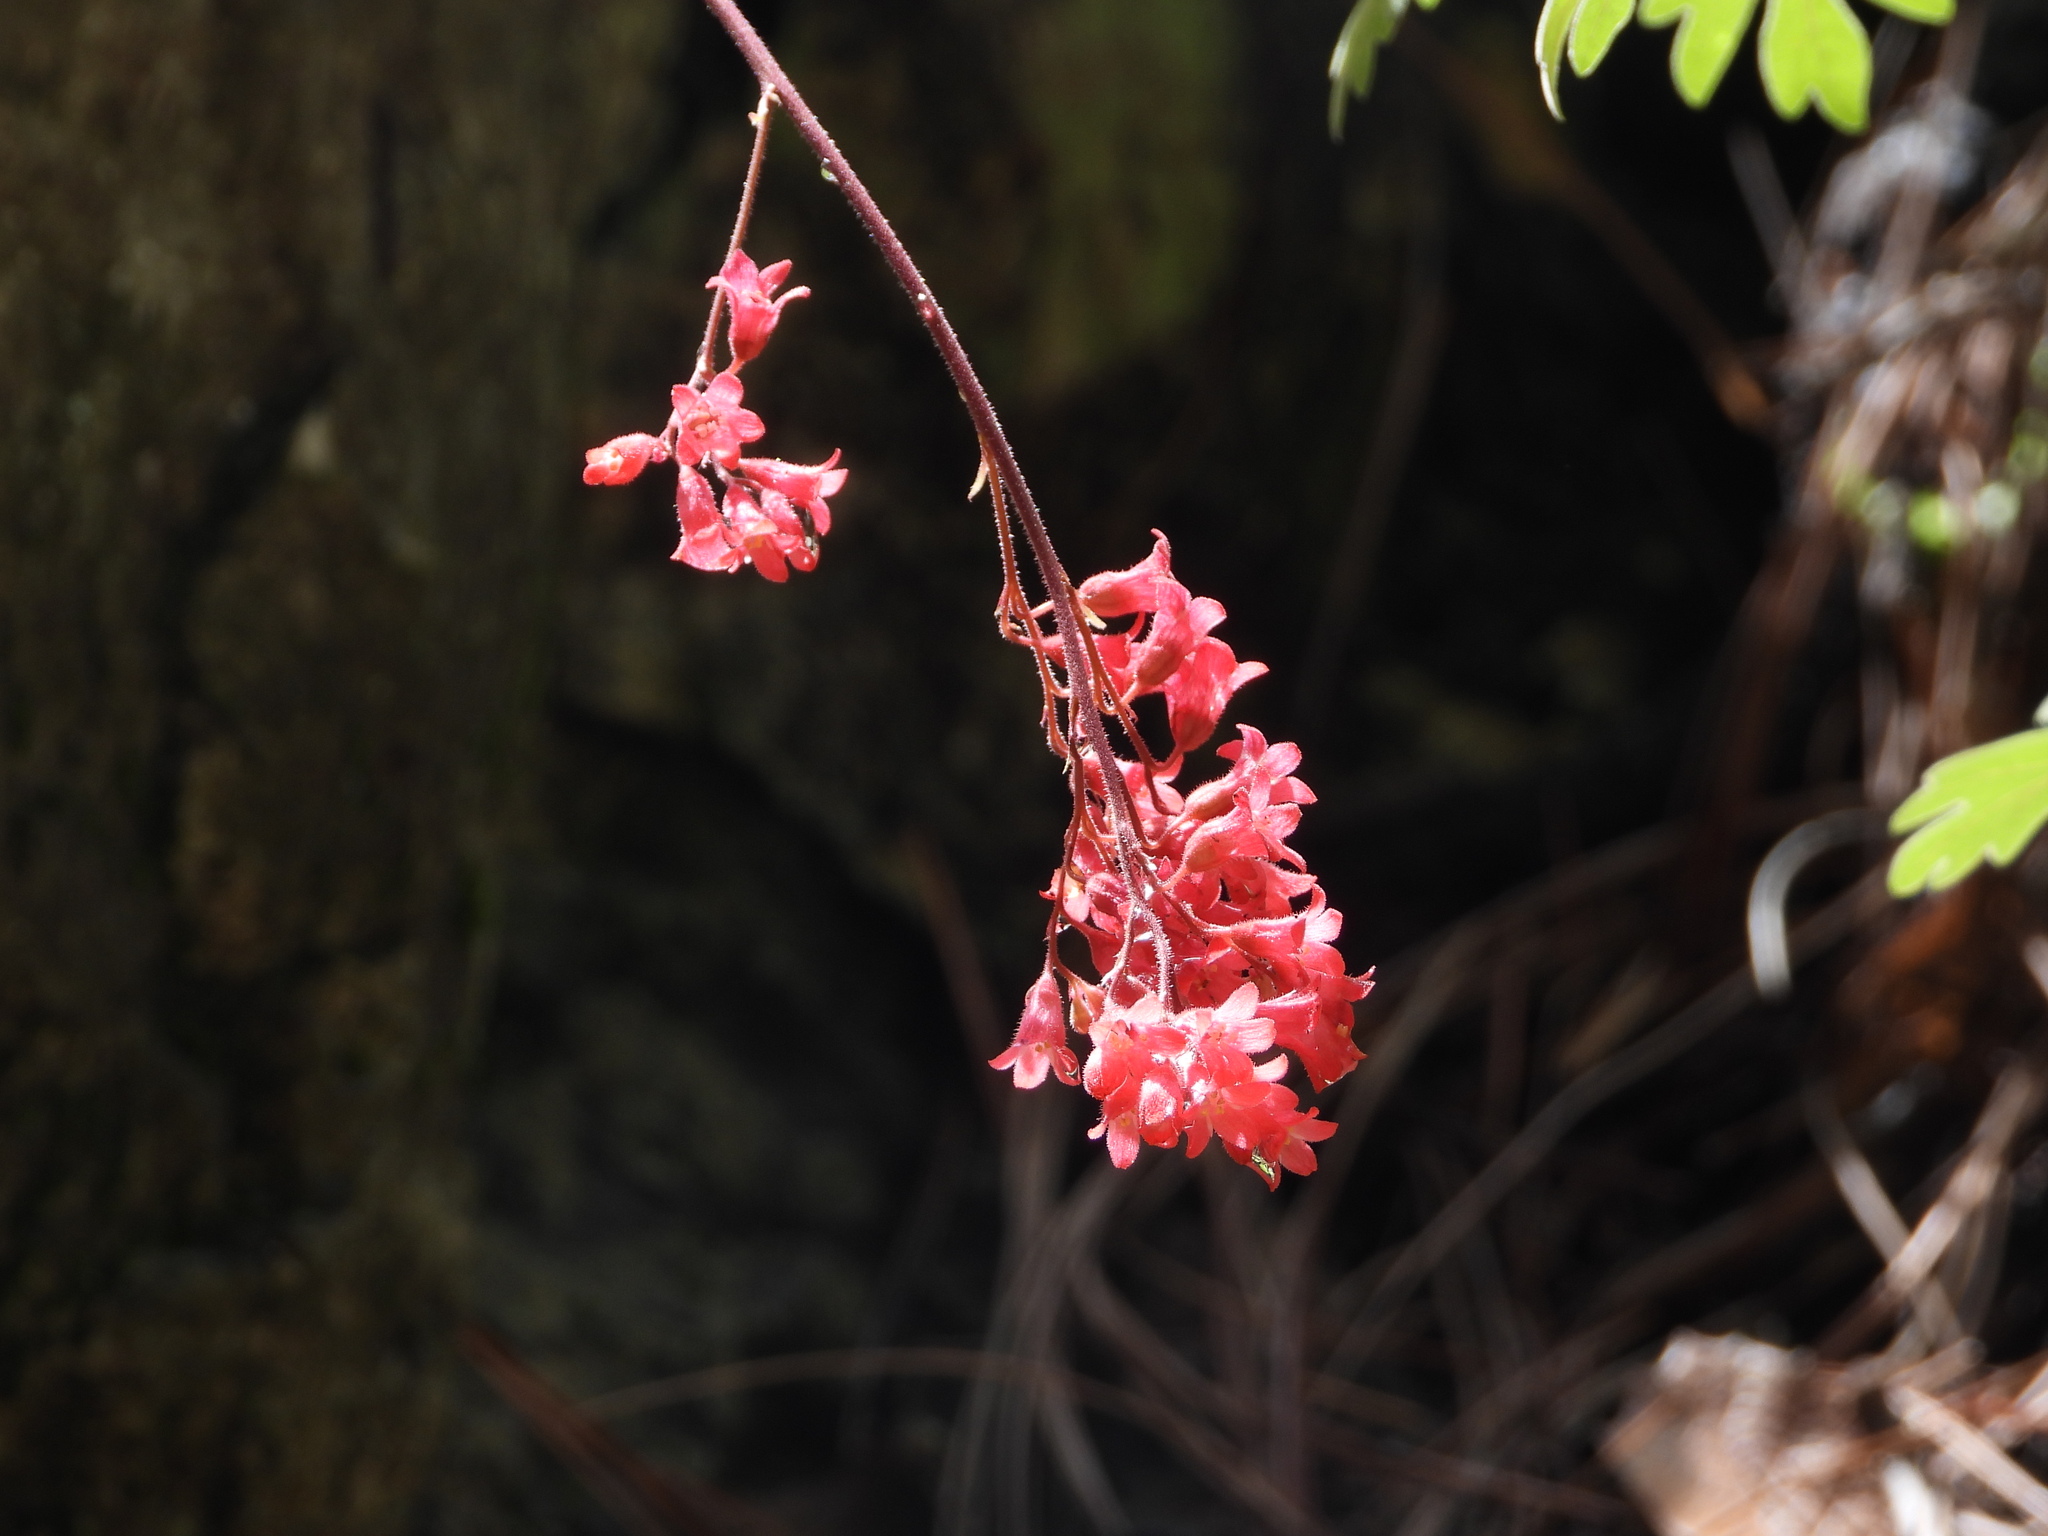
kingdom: Plantae
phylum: Tracheophyta
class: Magnoliopsida
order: Saxifragales
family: Saxifragaceae
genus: Heuchera
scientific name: Heuchera sanguinea
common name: Coralbells
